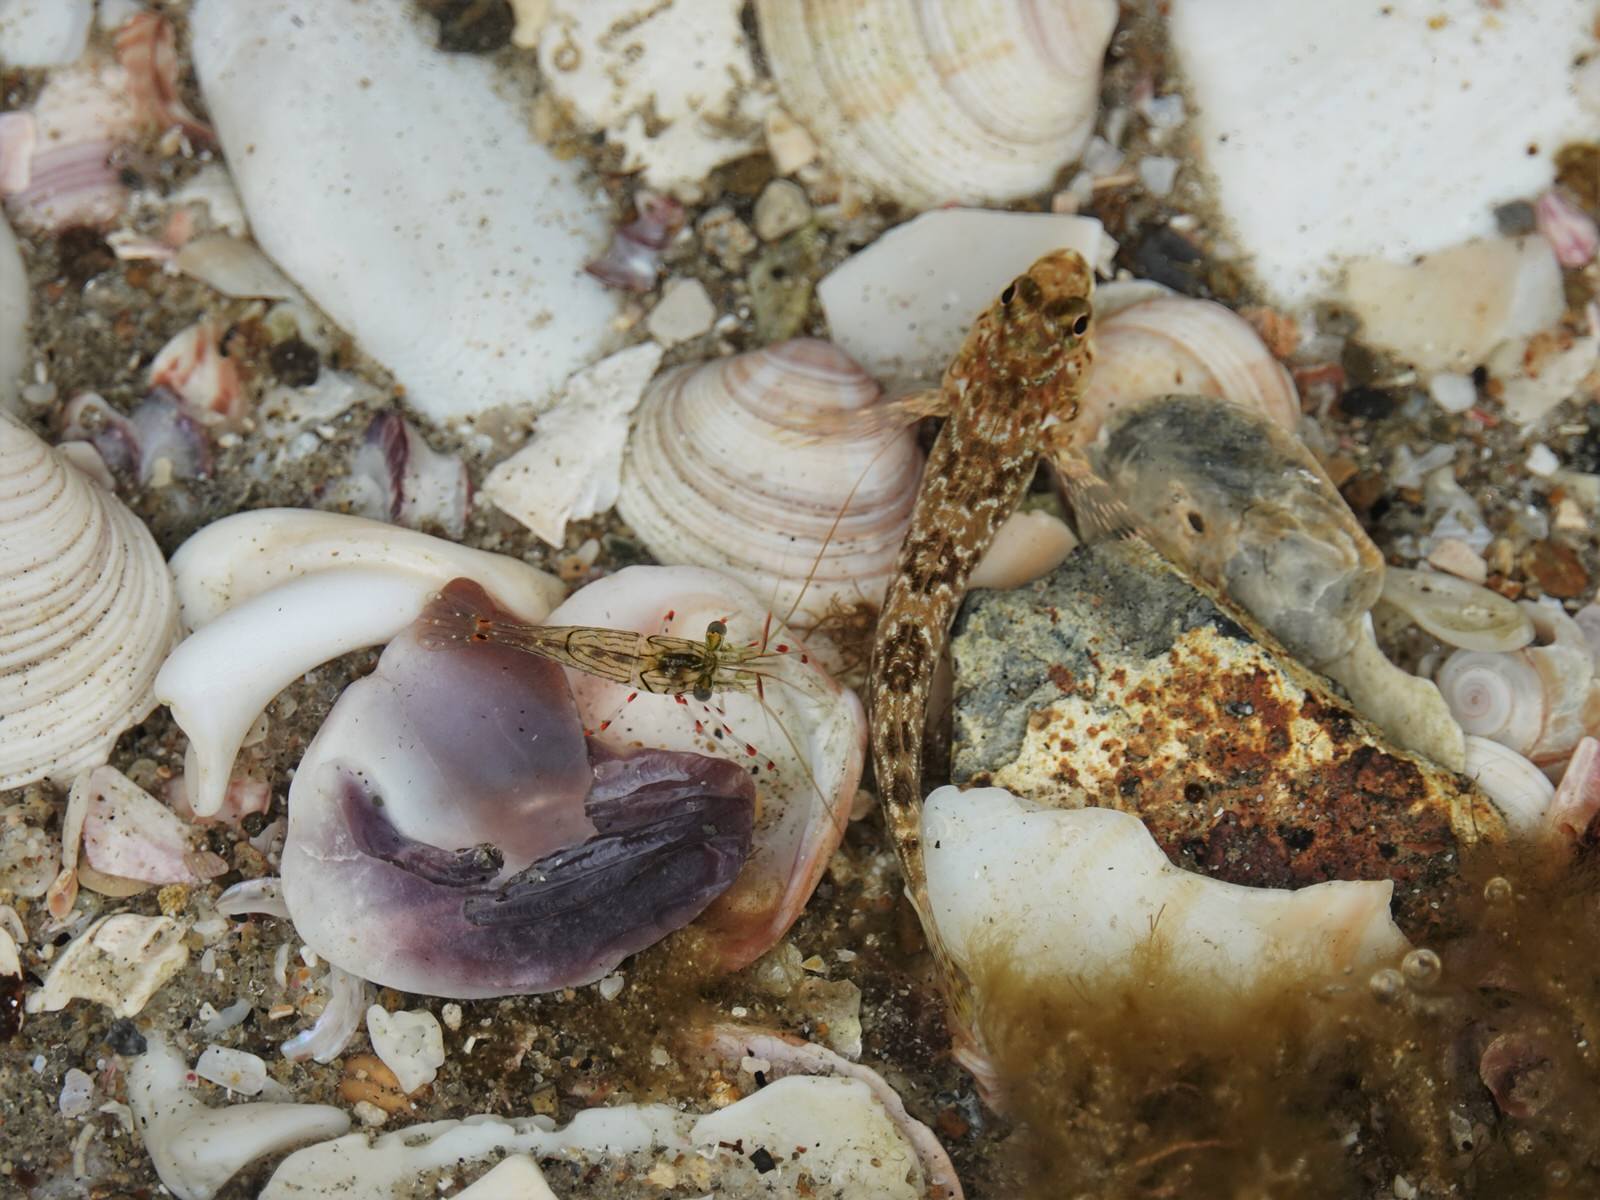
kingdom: Animalia
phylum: Chordata
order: Perciformes
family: Tripterygiidae
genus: Bellapiscis
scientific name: Bellapiscis medius
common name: Twister
